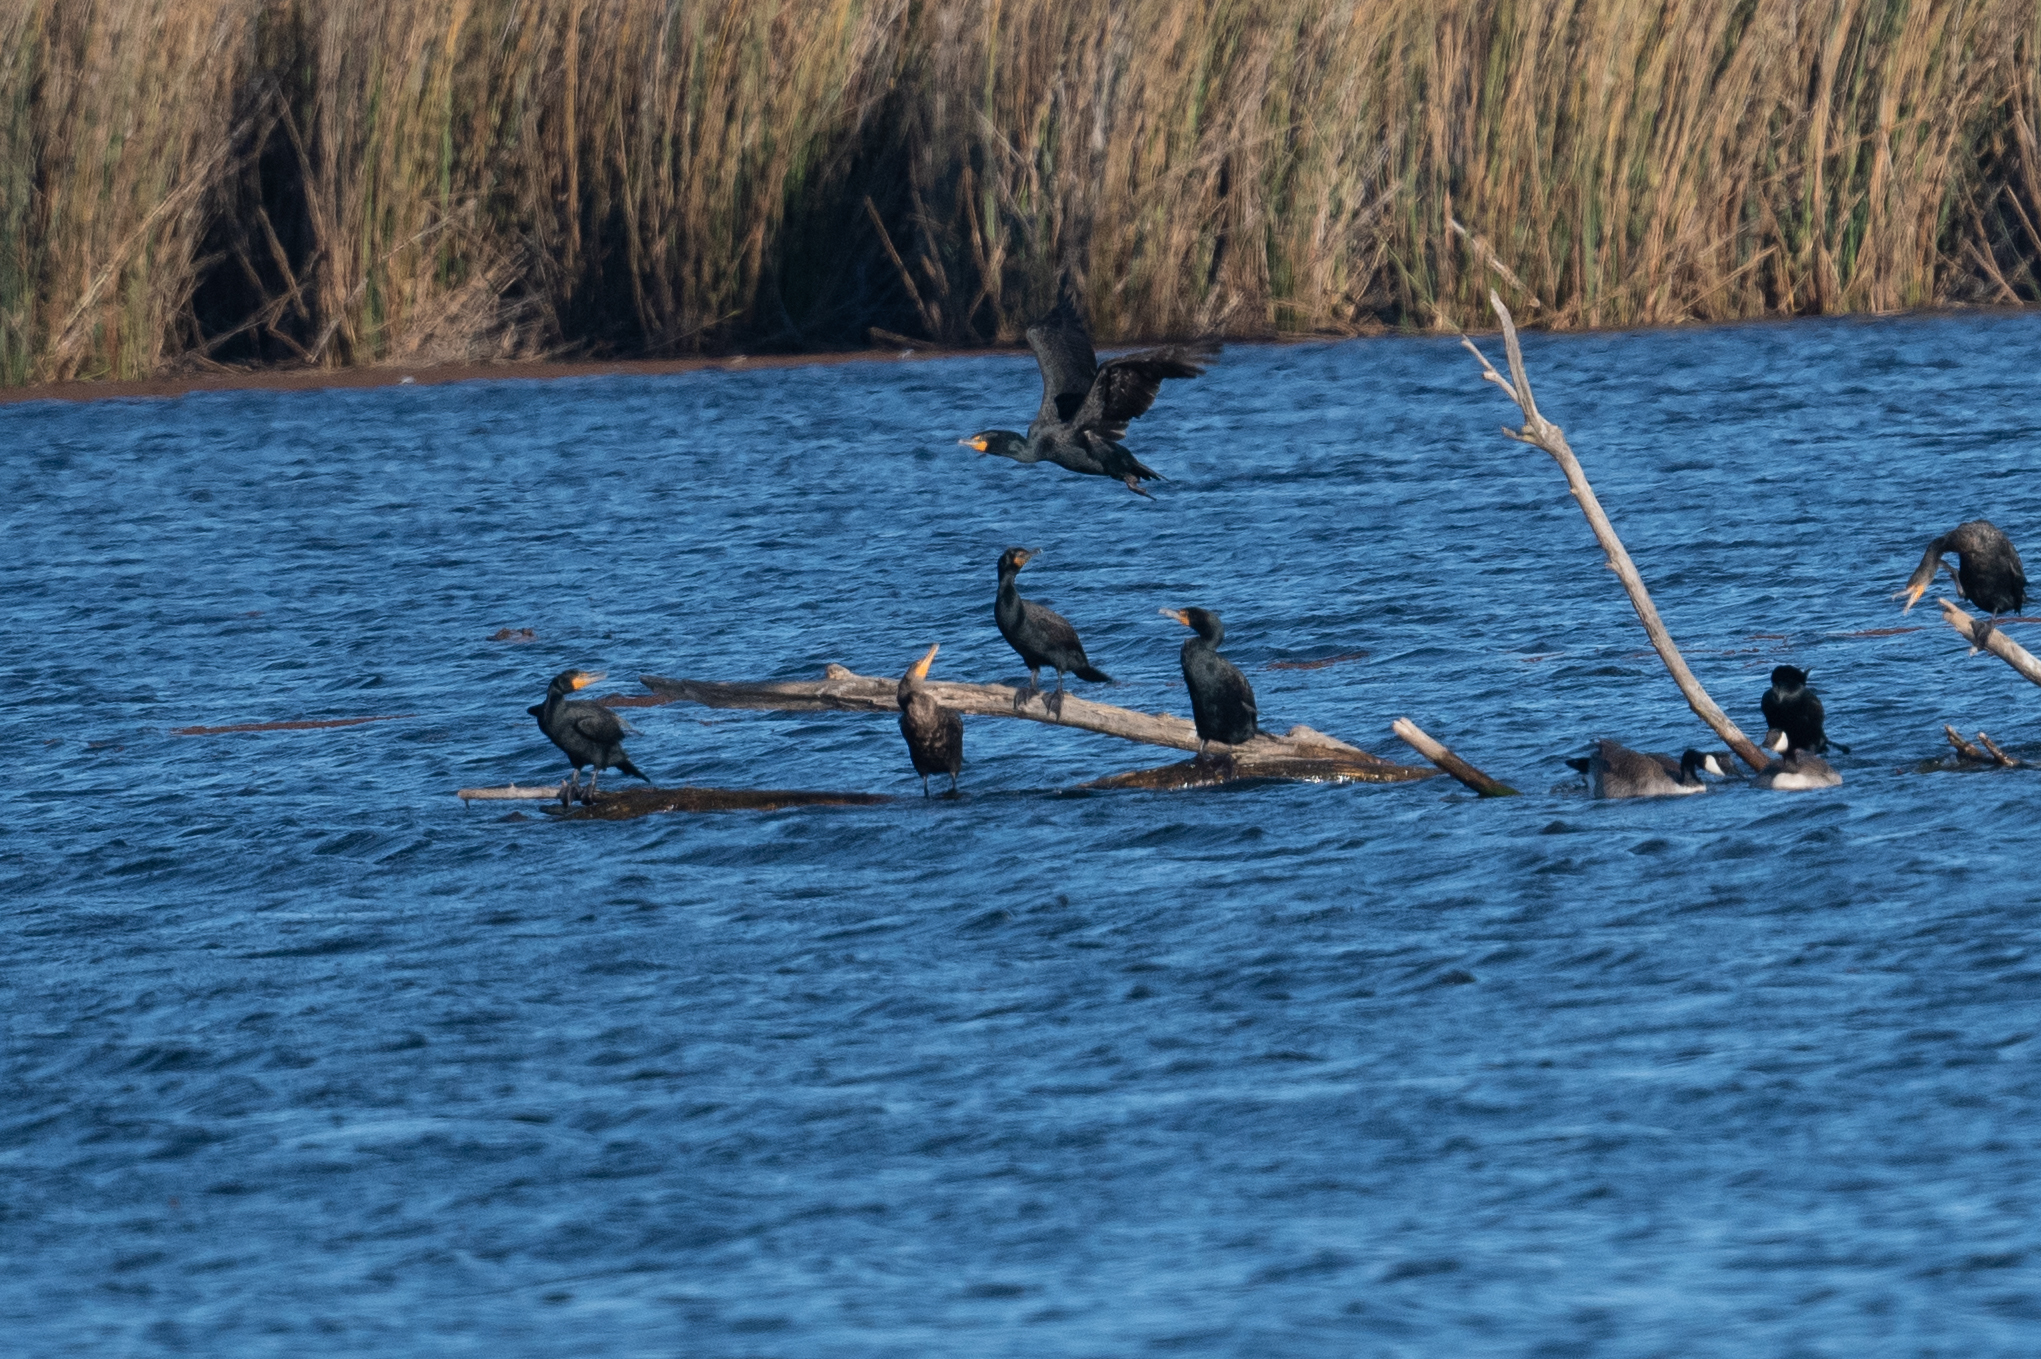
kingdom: Animalia
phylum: Chordata
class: Aves
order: Suliformes
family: Phalacrocoracidae
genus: Phalacrocorax
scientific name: Phalacrocorax auritus
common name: Double-crested cormorant
